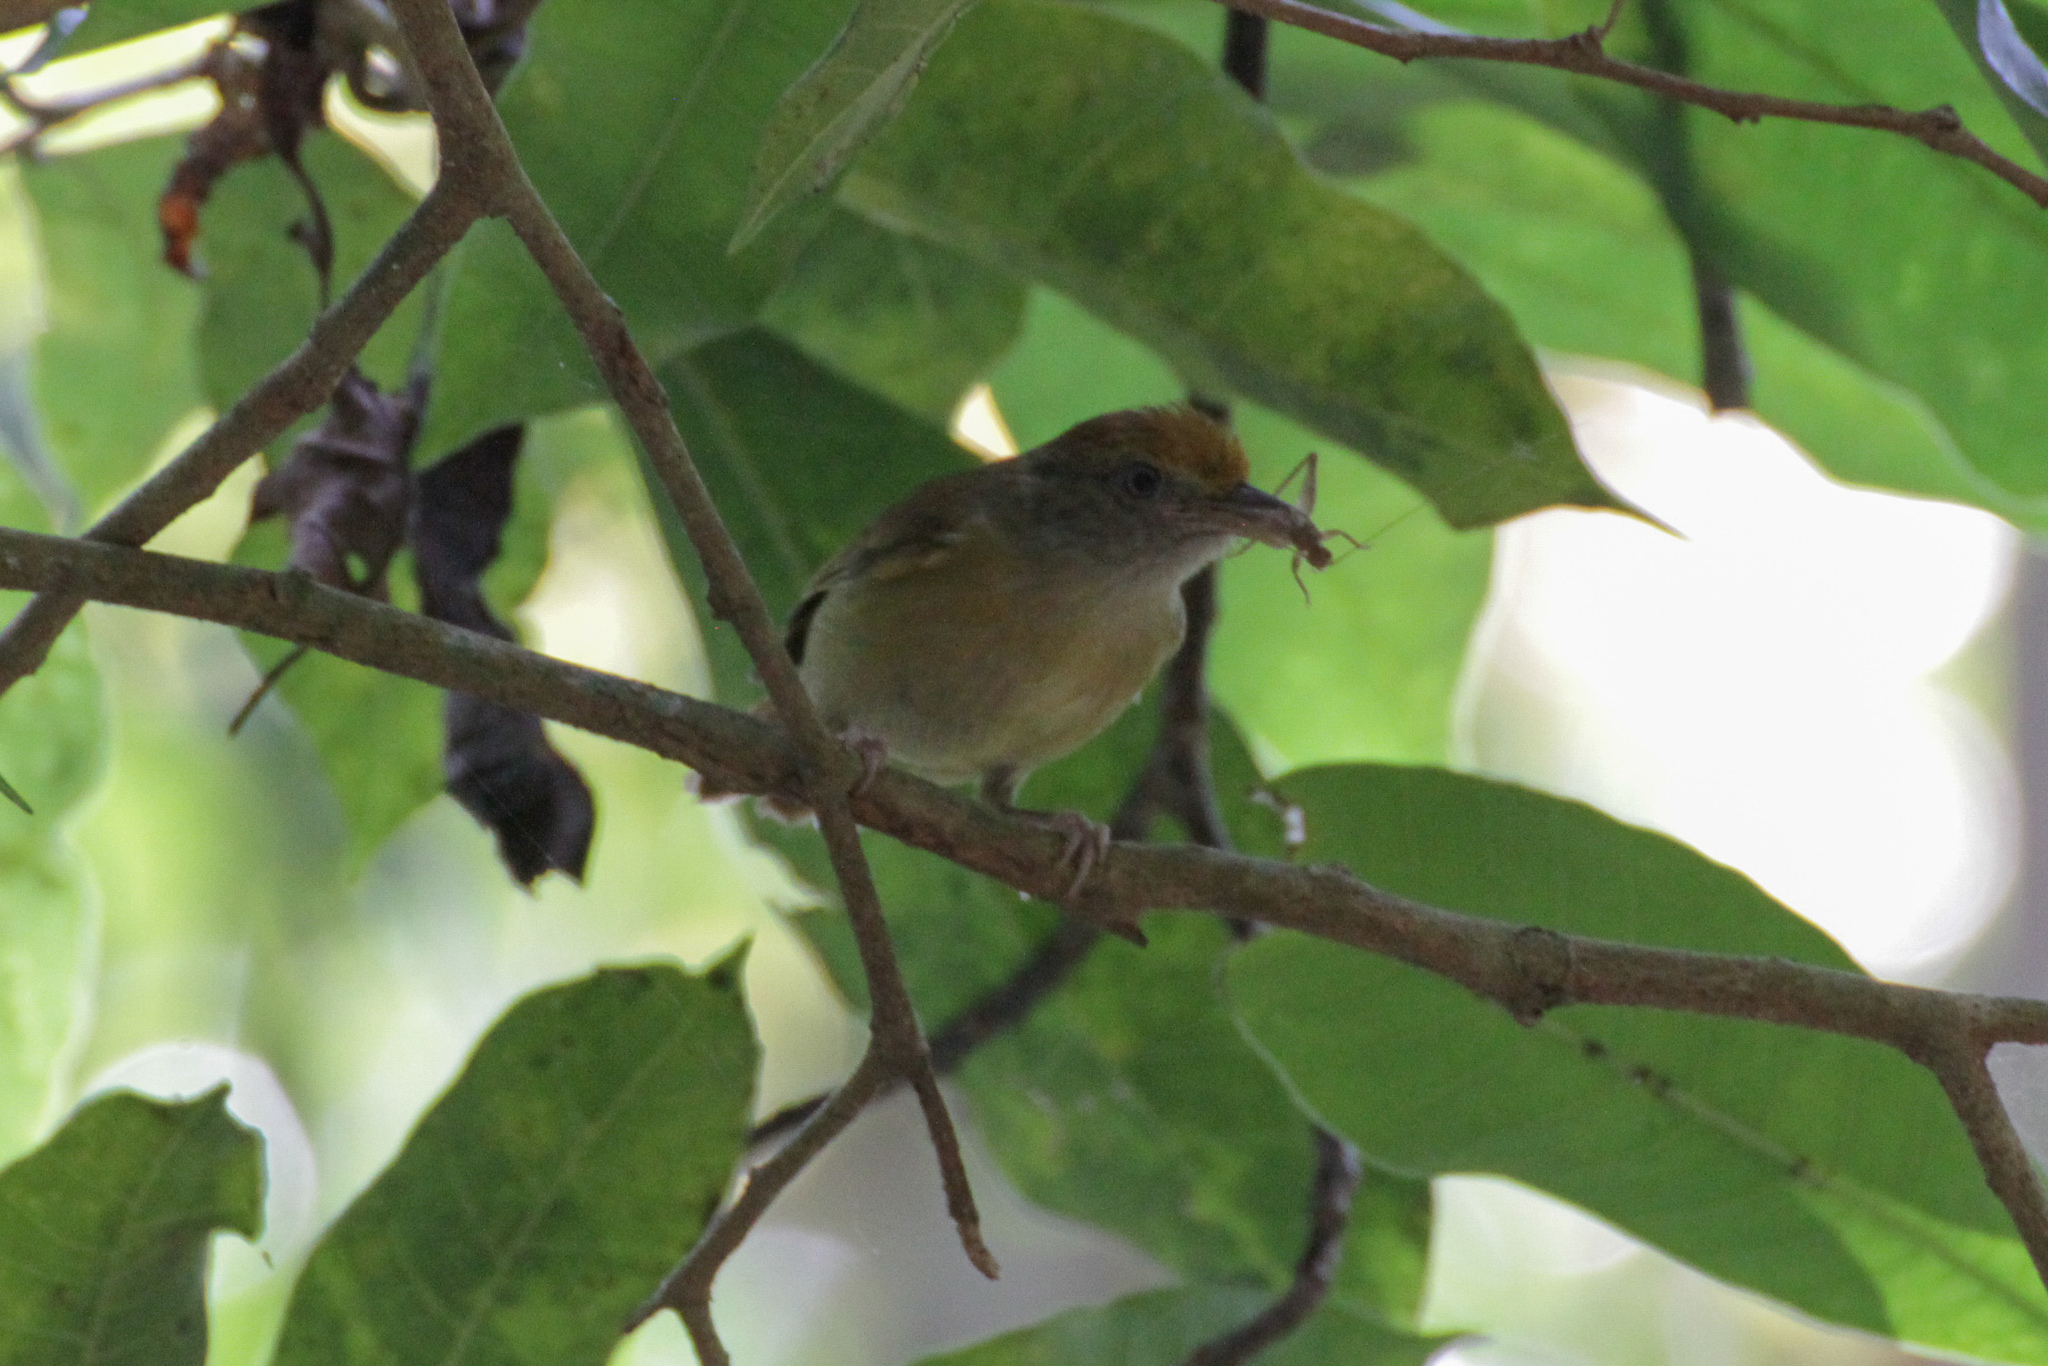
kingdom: Animalia
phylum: Chordata
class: Aves
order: Passeriformes
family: Vireonidae
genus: Hylophilus
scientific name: Hylophilus ochraceiceps
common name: Tawny-crowned greenlet
